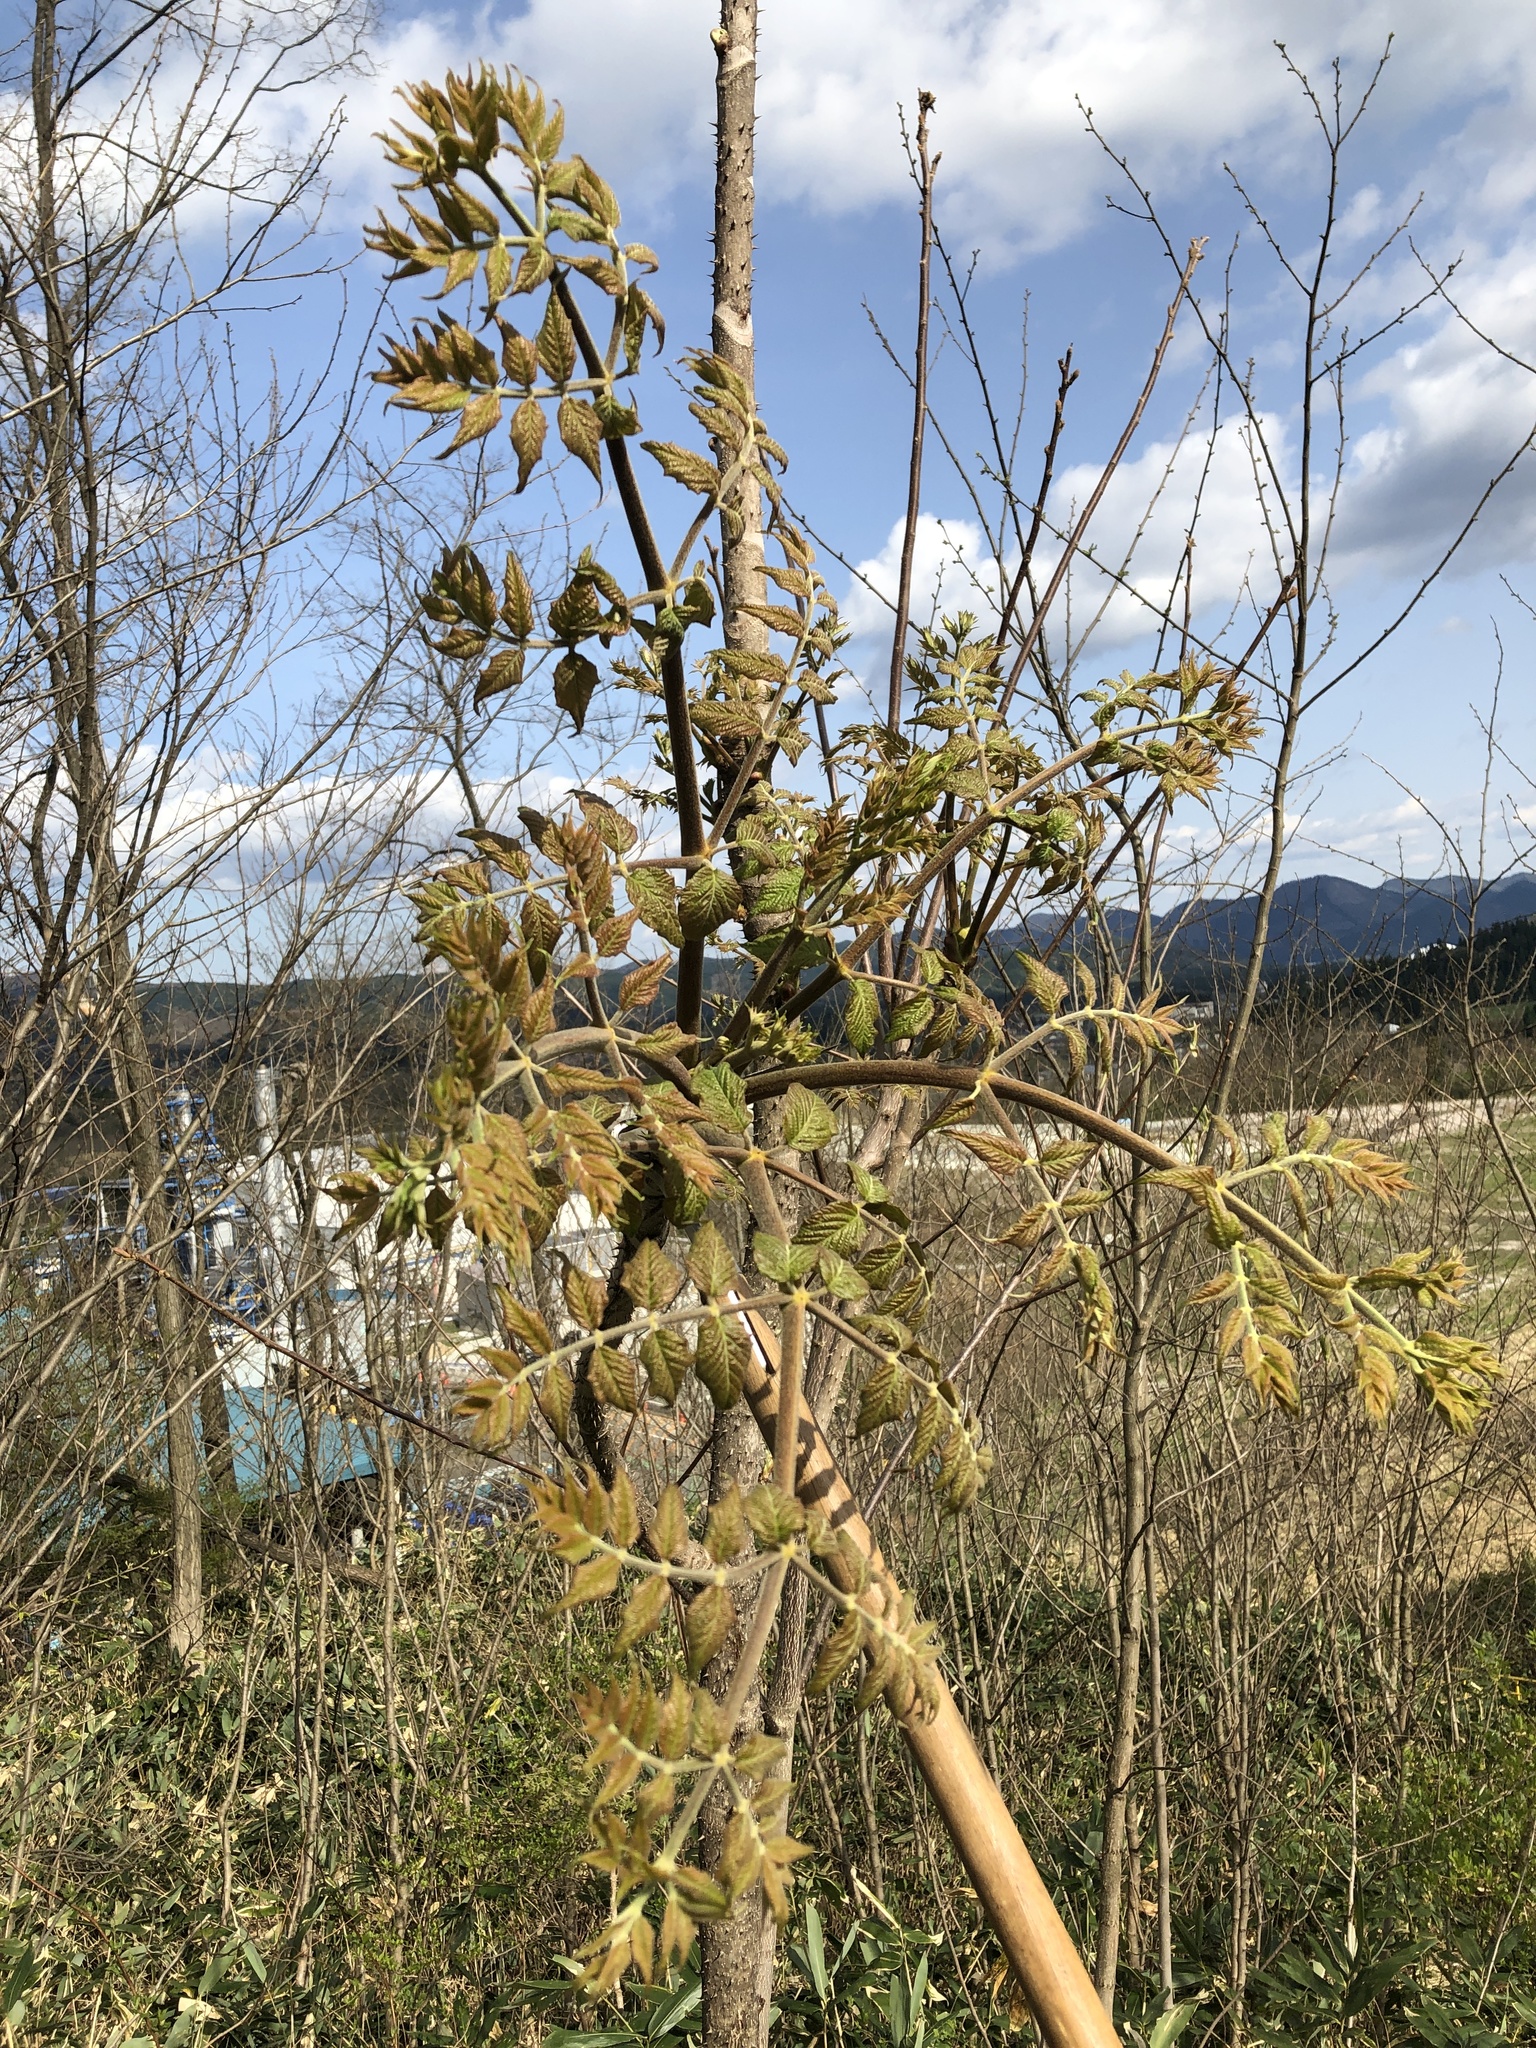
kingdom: Plantae
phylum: Tracheophyta
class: Magnoliopsida
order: Apiales
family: Araliaceae
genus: Aralia
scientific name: Aralia elata
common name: Japanese angelica-tree
